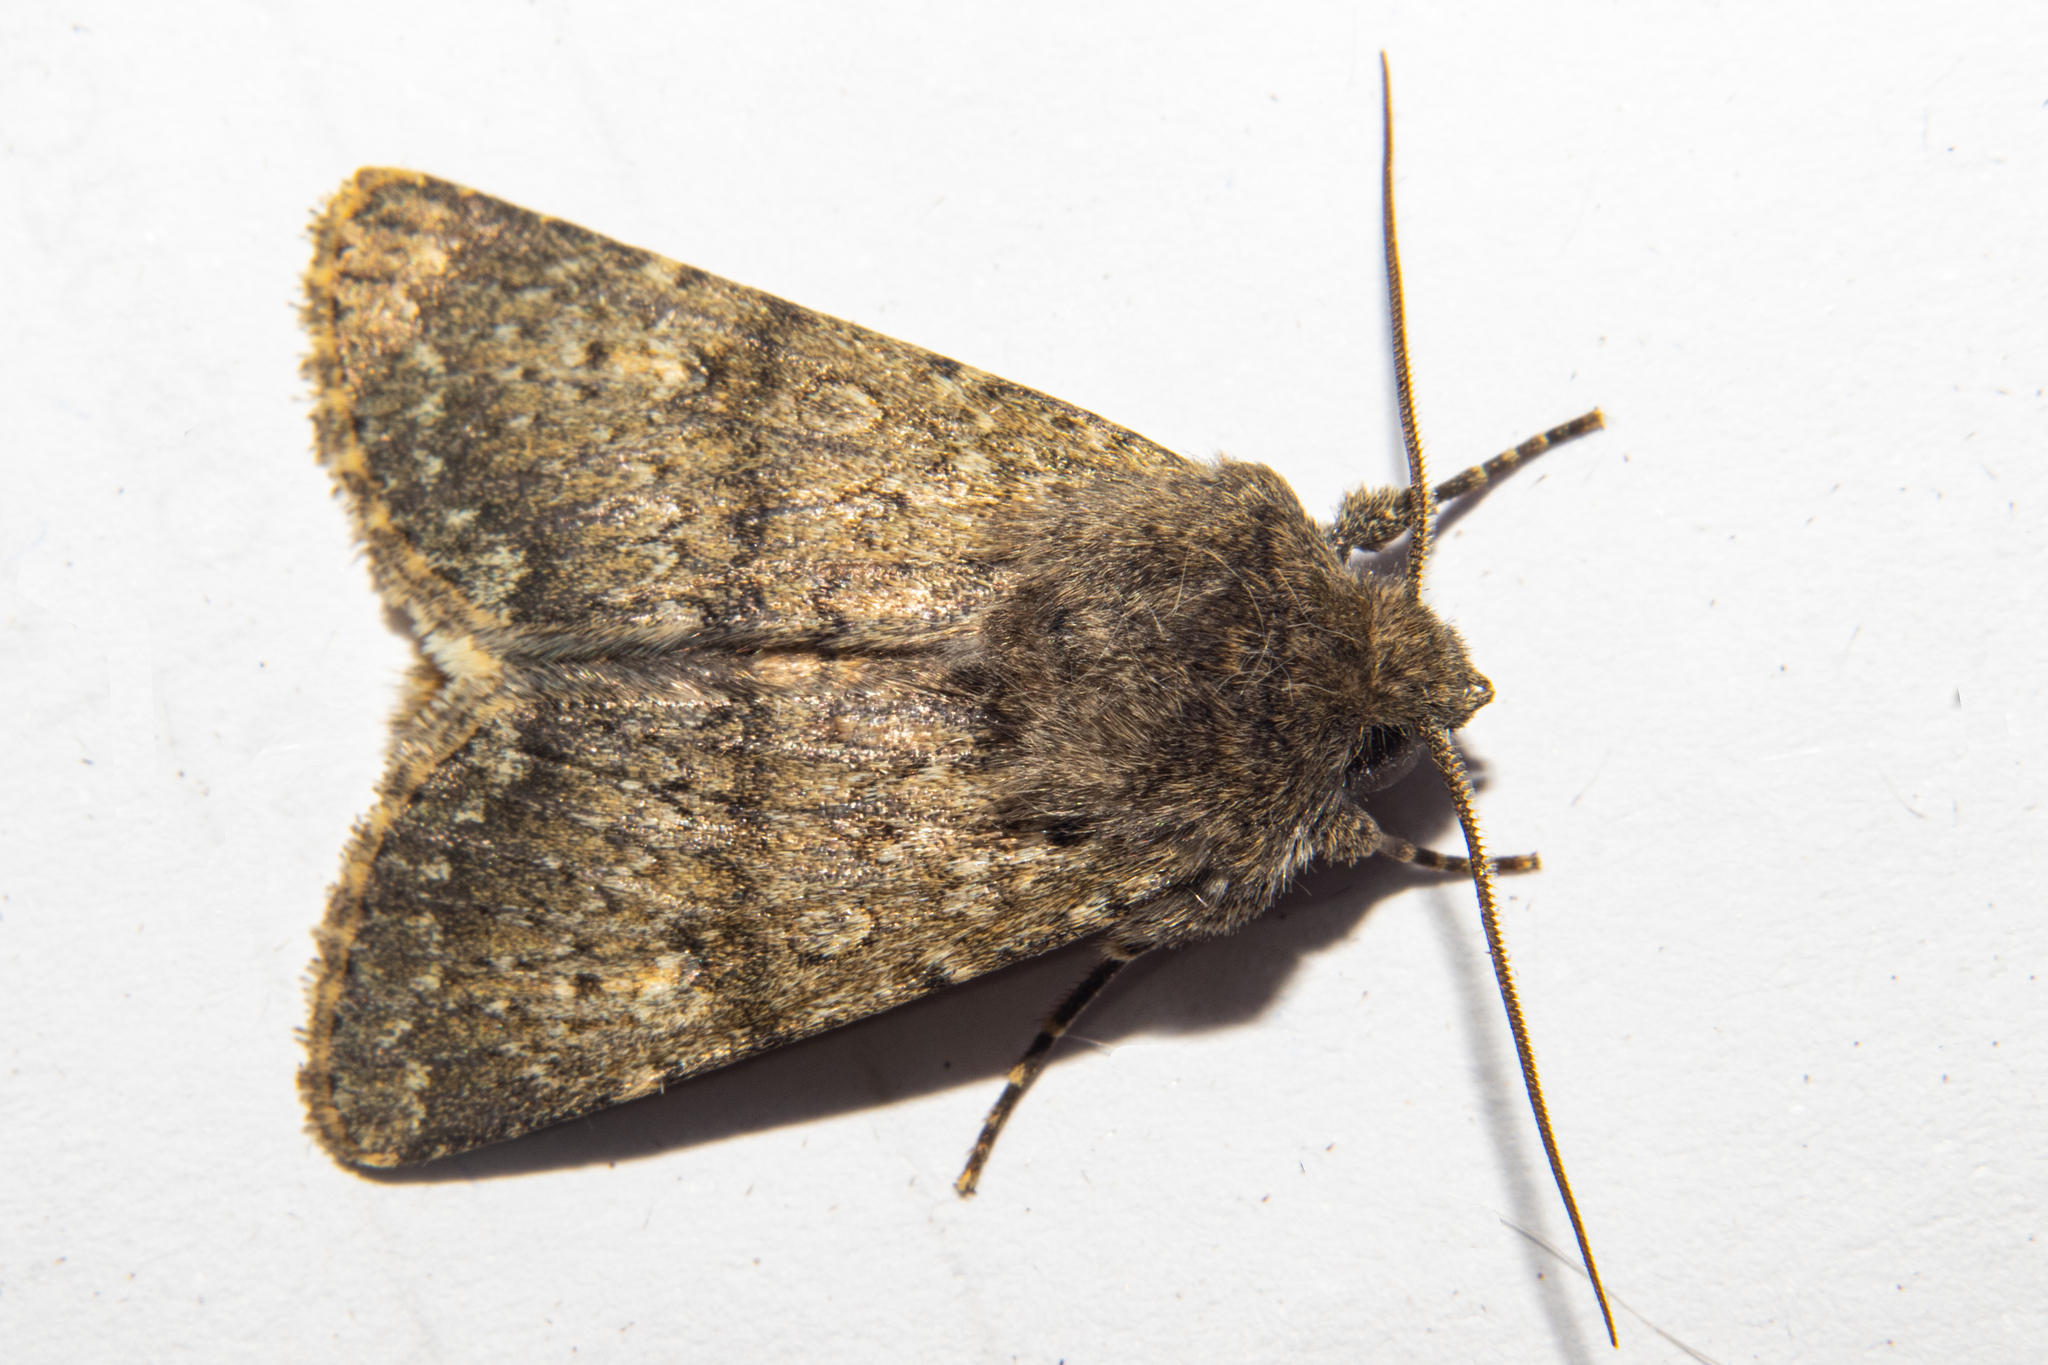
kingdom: Animalia
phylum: Arthropoda
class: Insecta
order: Lepidoptera
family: Noctuidae
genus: Ichneutica
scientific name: Ichneutica moderata
